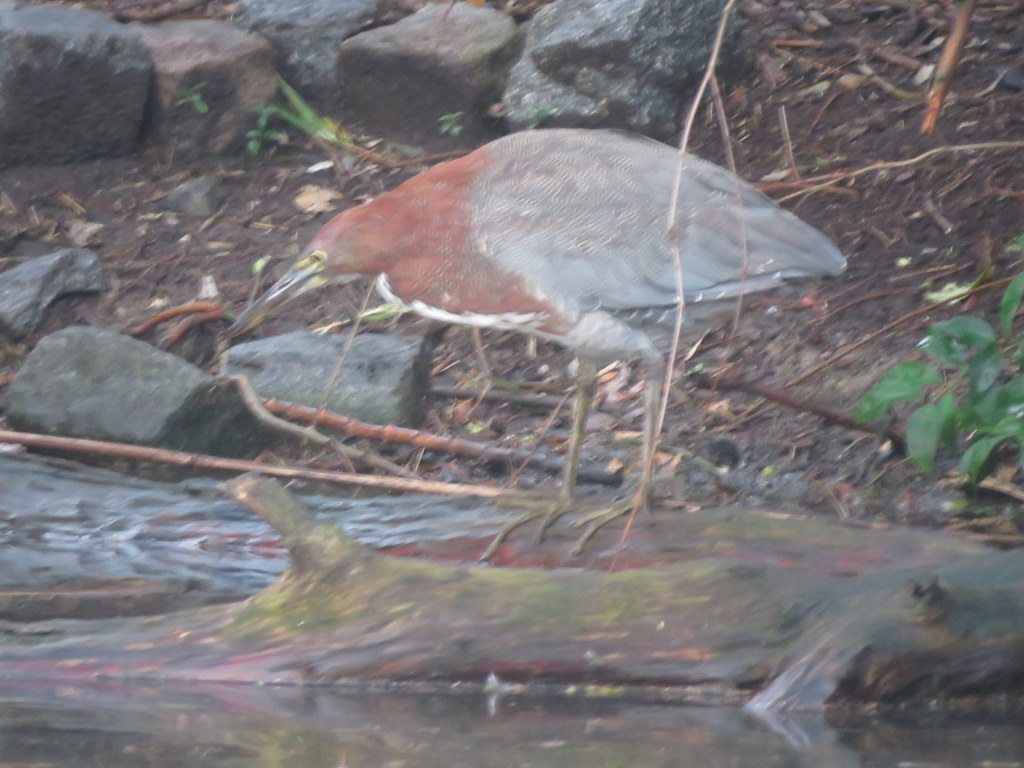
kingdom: Animalia
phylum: Chordata
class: Aves
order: Pelecaniformes
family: Ardeidae
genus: Tigrisoma
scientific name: Tigrisoma lineatum
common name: Rufescent tiger-heron
